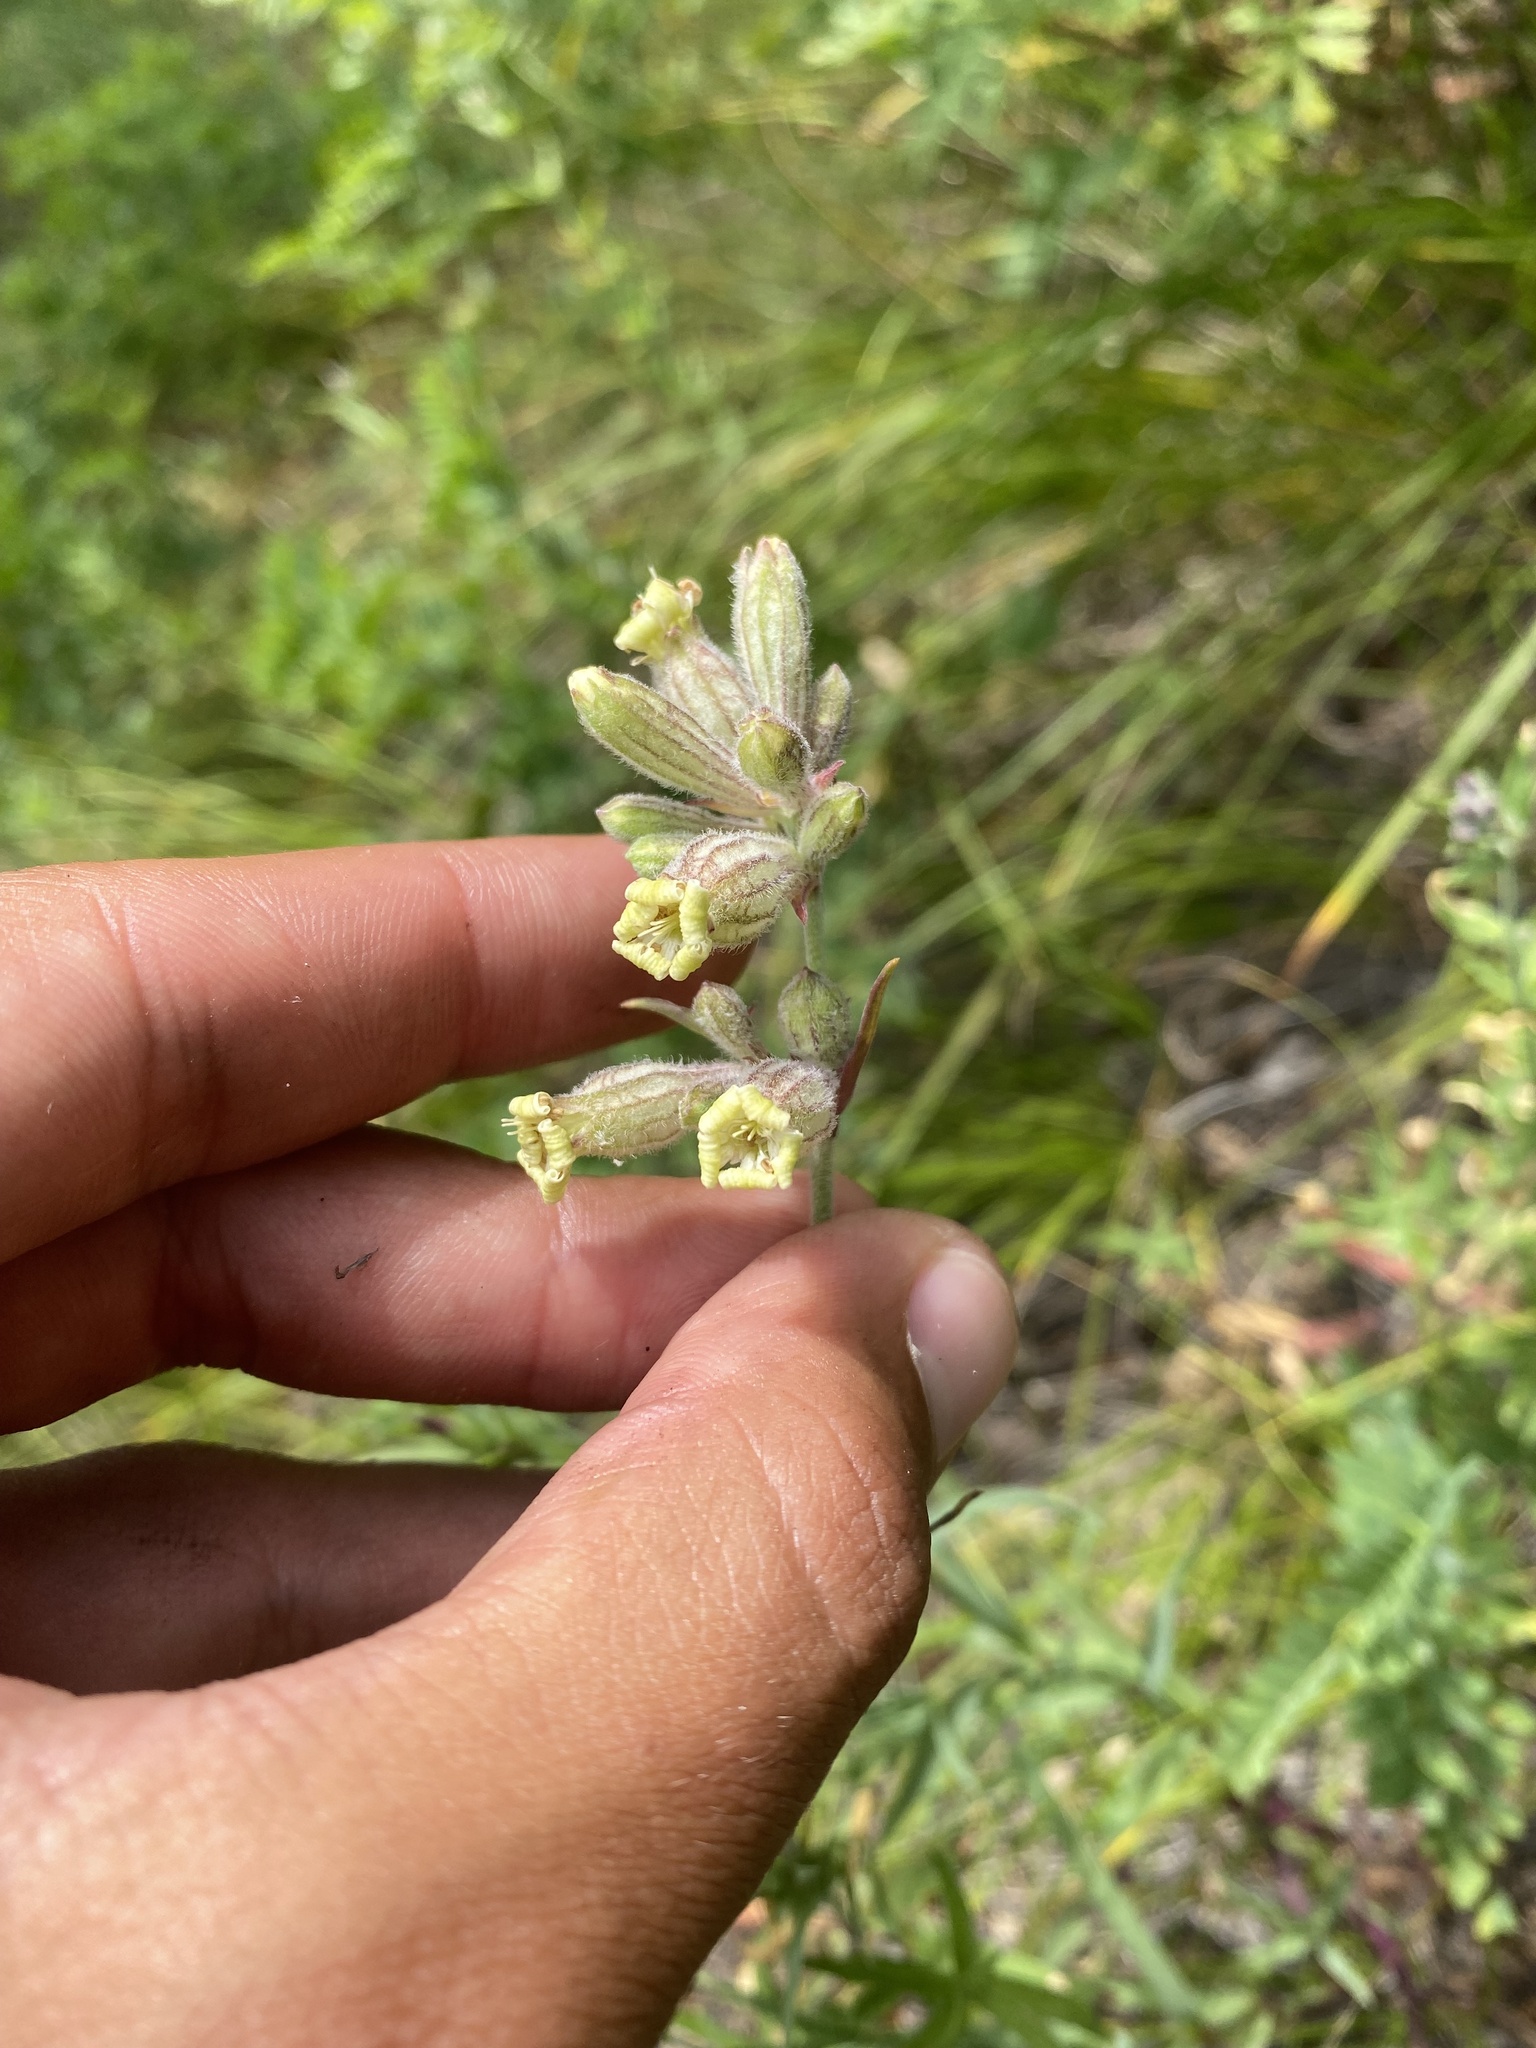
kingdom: Plantae
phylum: Tracheophyta
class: Magnoliopsida
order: Caryophyllales
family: Caryophyllaceae
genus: Silene
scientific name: Silene amoena
